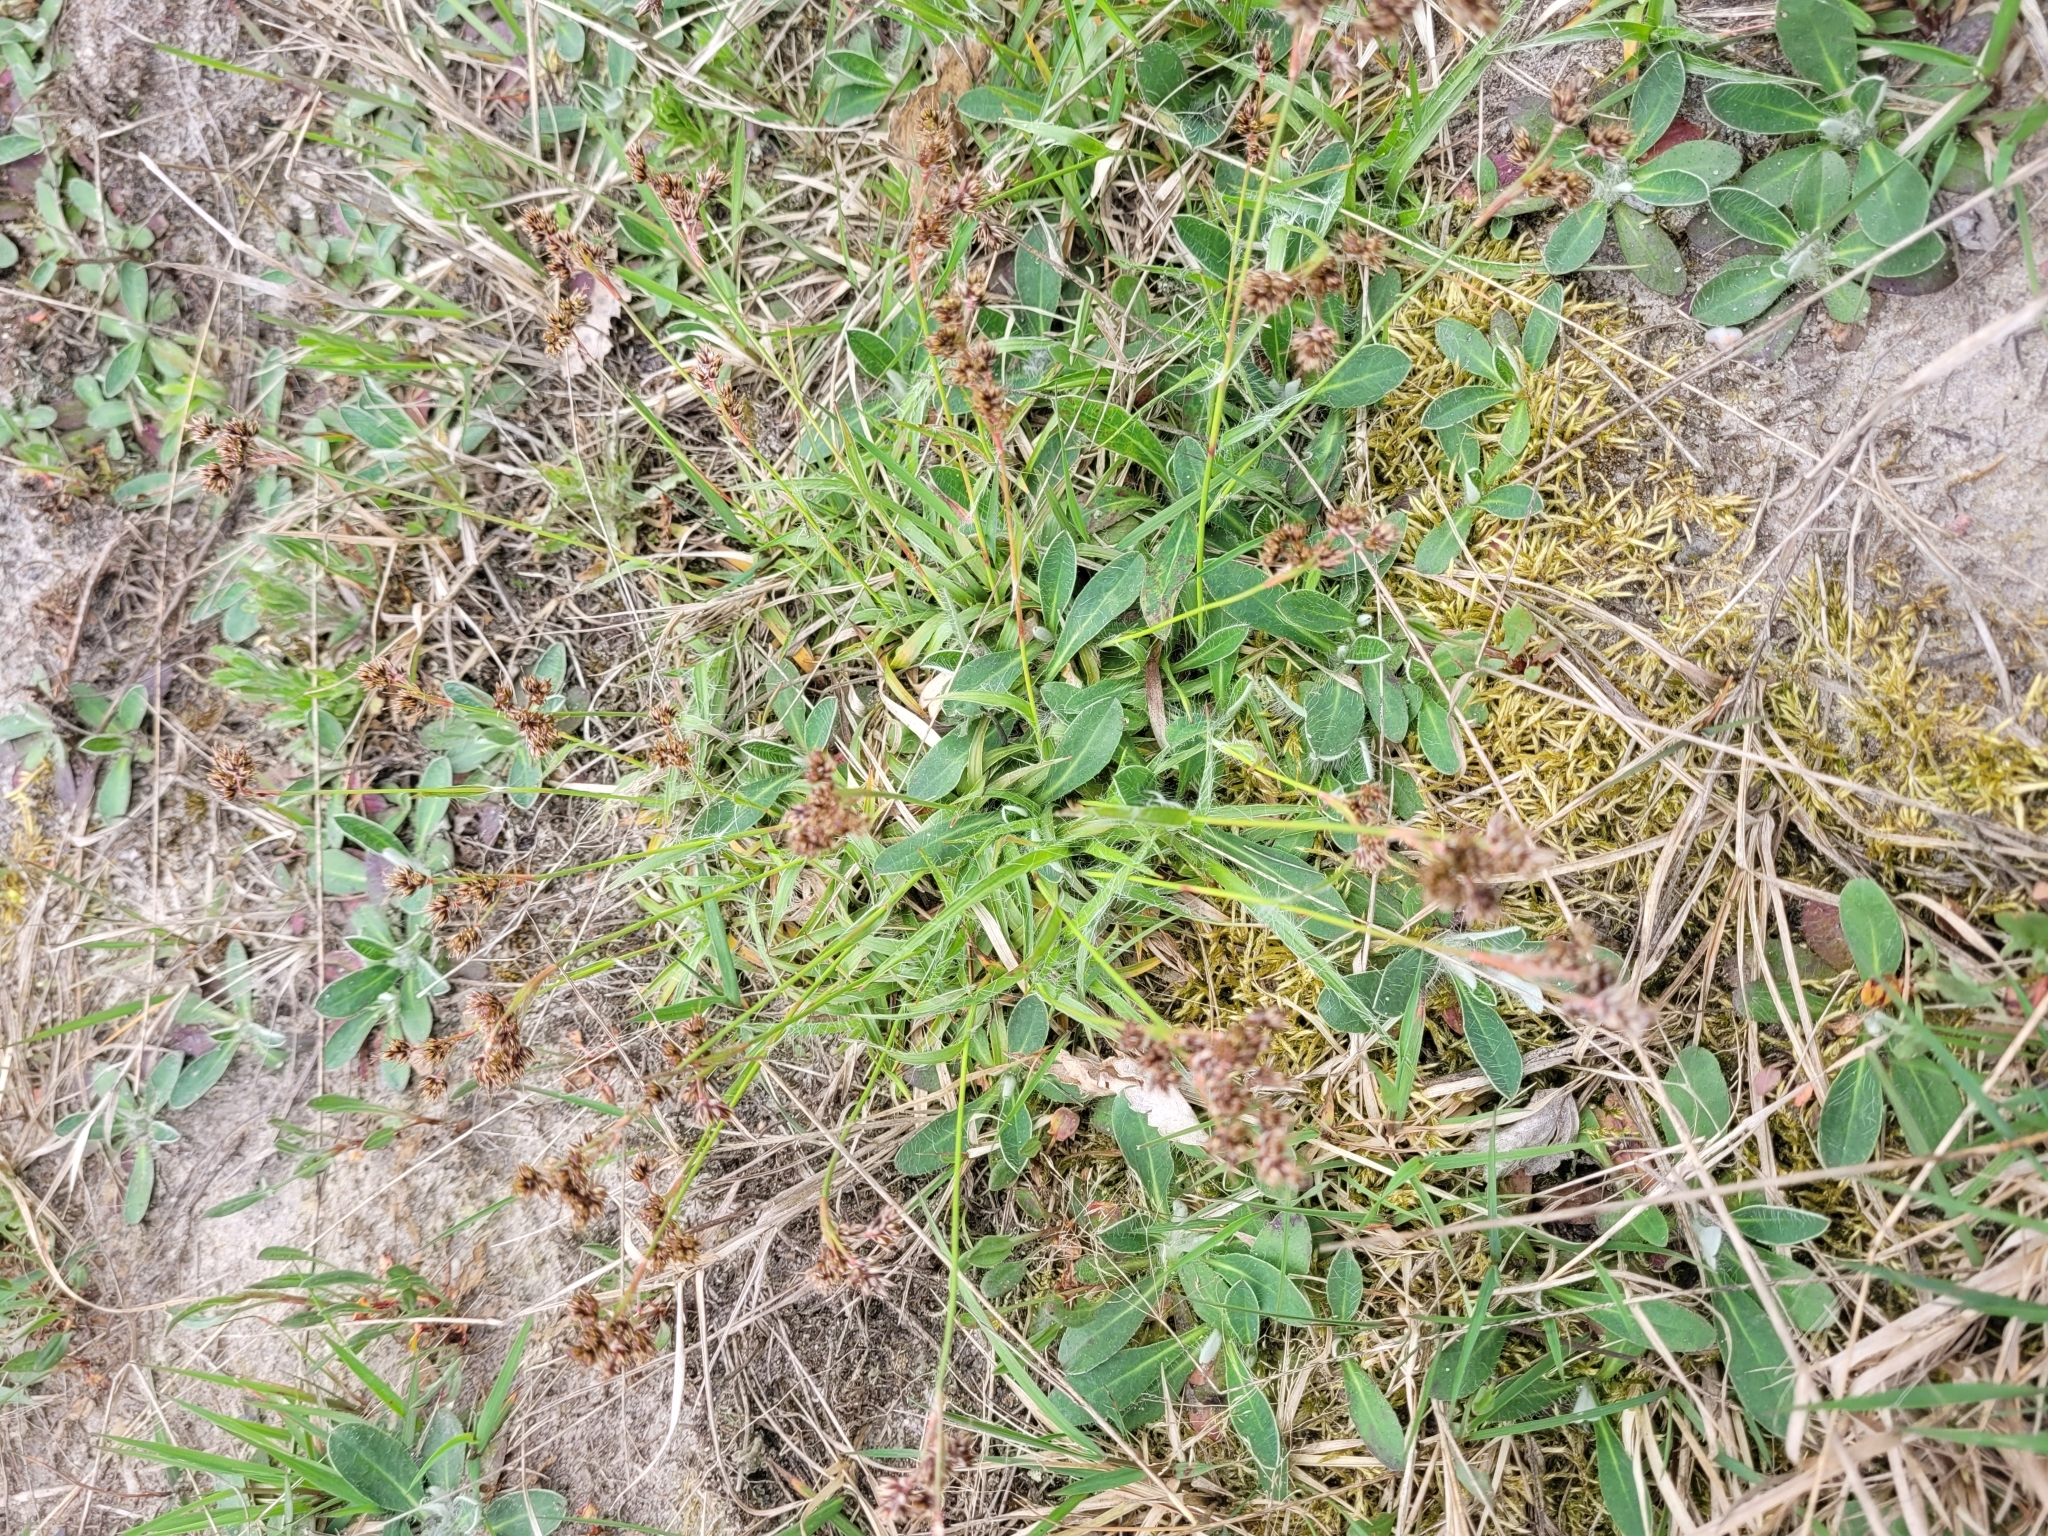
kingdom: Plantae
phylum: Tracheophyta
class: Liliopsida
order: Poales
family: Juncaceae
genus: Luzula
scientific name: Luzula campestris
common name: Field wood-rush
